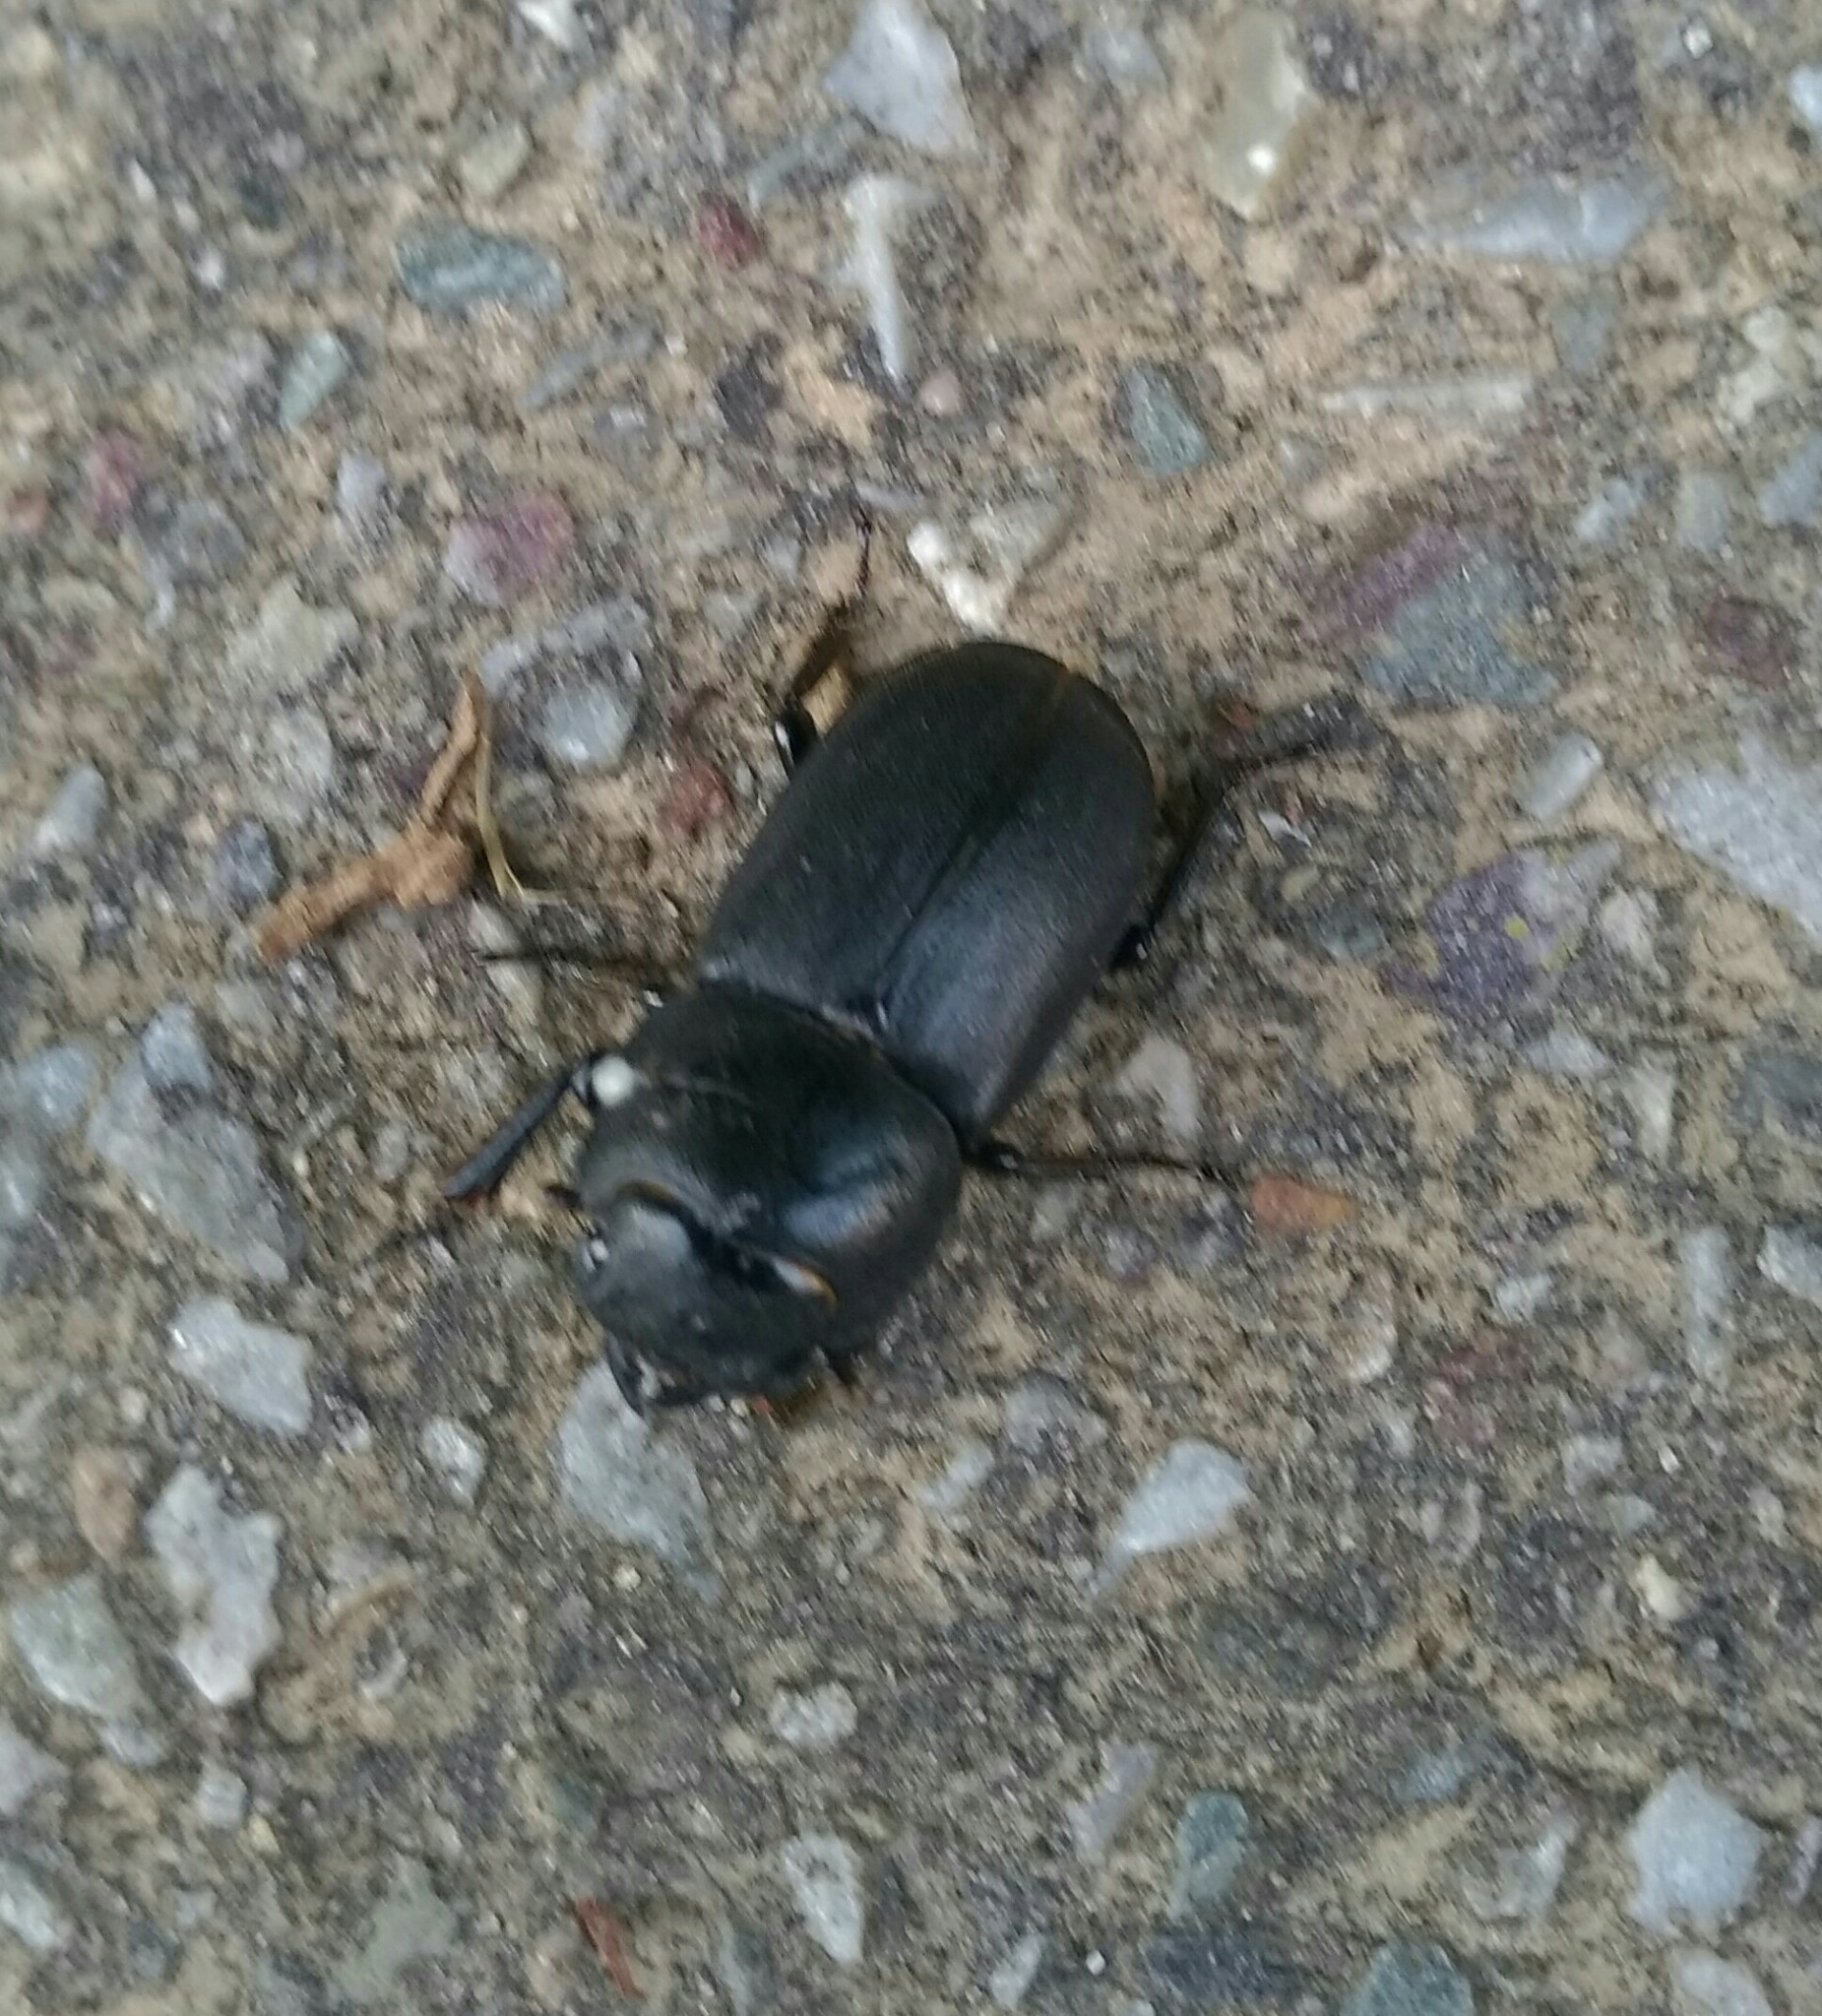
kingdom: Animalia
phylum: Arthropoda
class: Insecta
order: Coleoptera
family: Lucanidae
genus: Dorcus
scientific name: Dorcus parallelipipedus
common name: Lesser stag beetle
